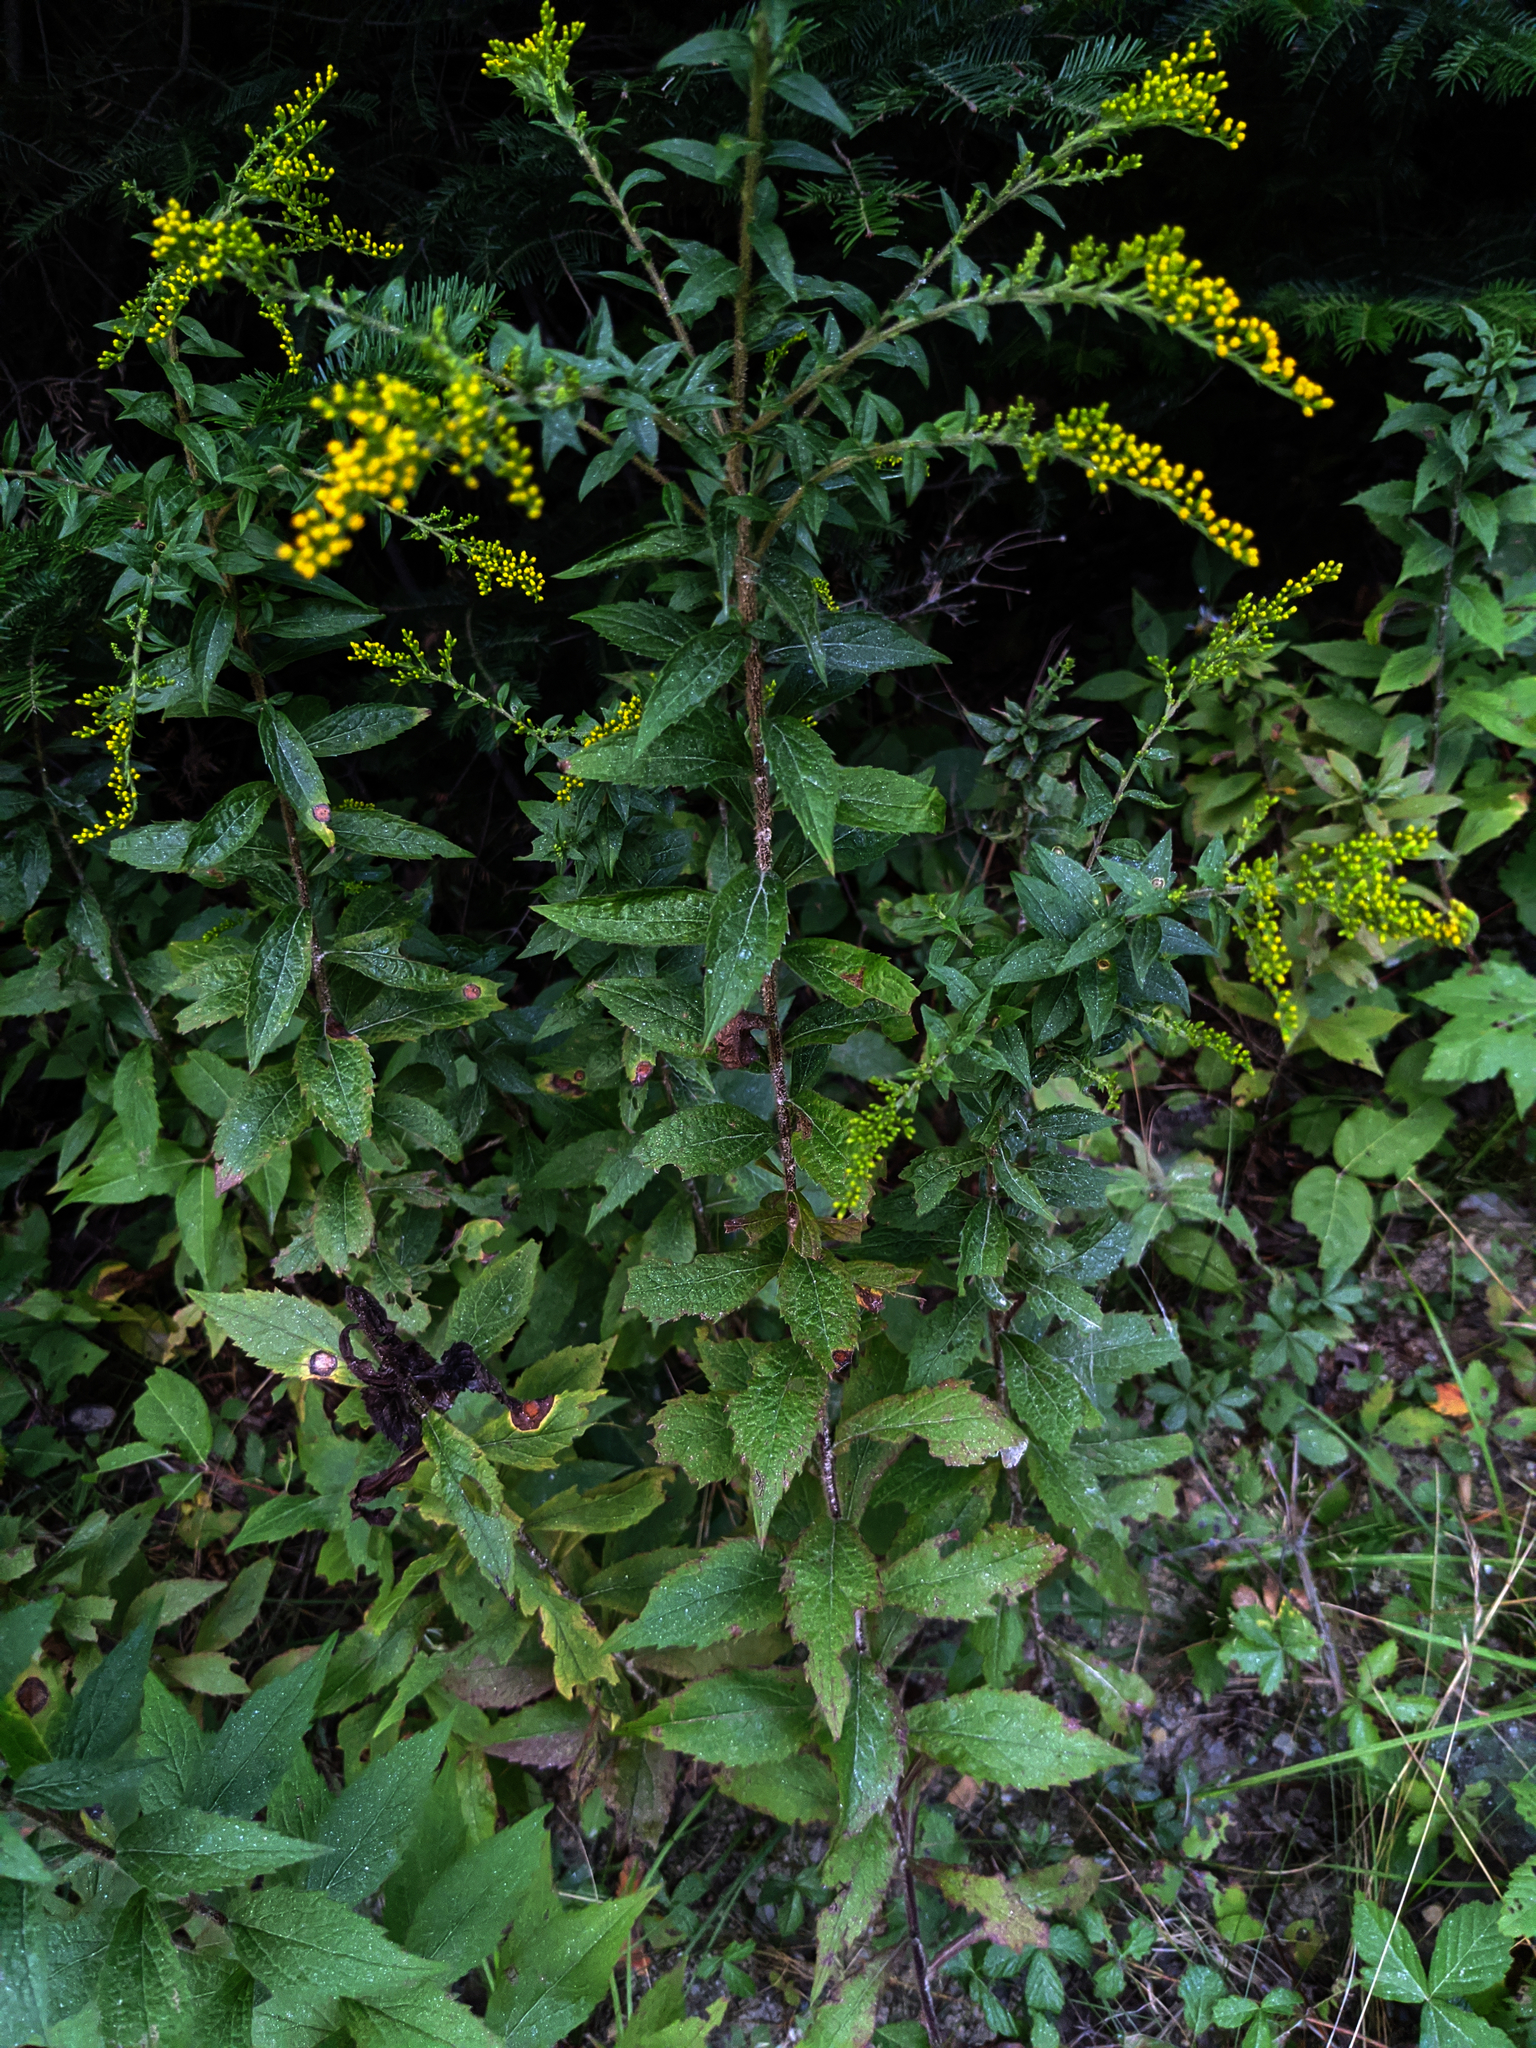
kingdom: Plantae
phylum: Tracheophyta
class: Magnoliopsida
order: Asterales
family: Asteraceae
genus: Solidago
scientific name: Solidago rugosa
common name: Rough-stemmed goldenrod
